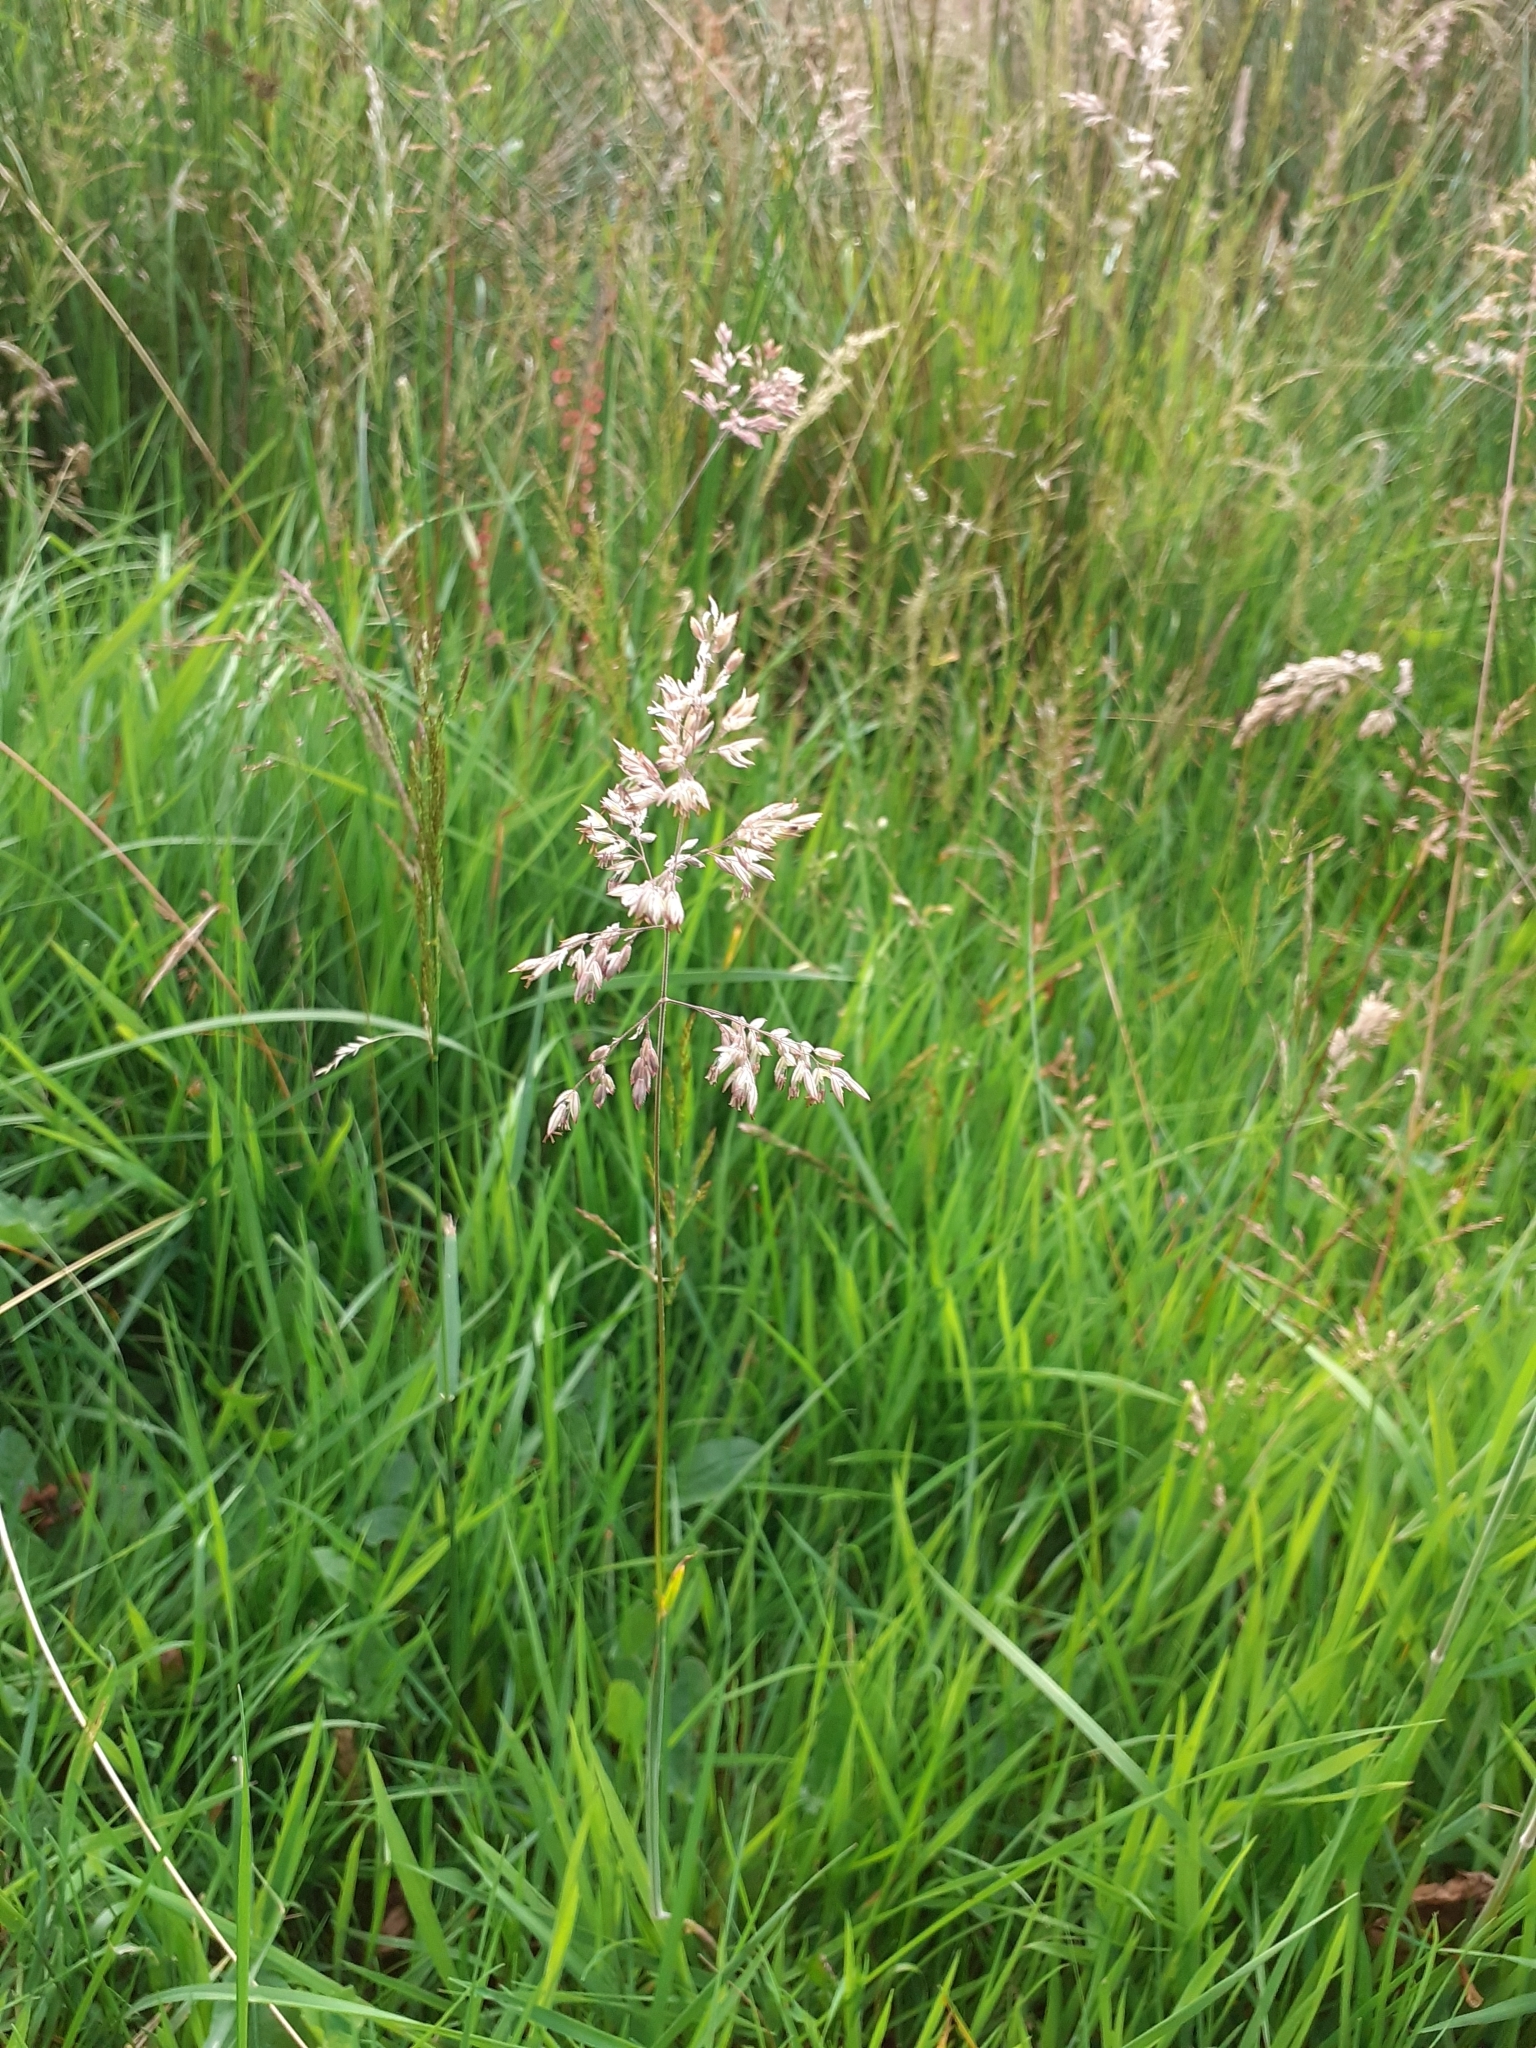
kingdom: Plantae
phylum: Tracheophyta
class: Liliopsida
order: Poales
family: Poaceae
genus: Holcus
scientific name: Holcus lanatus
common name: Yorkshire-fog
